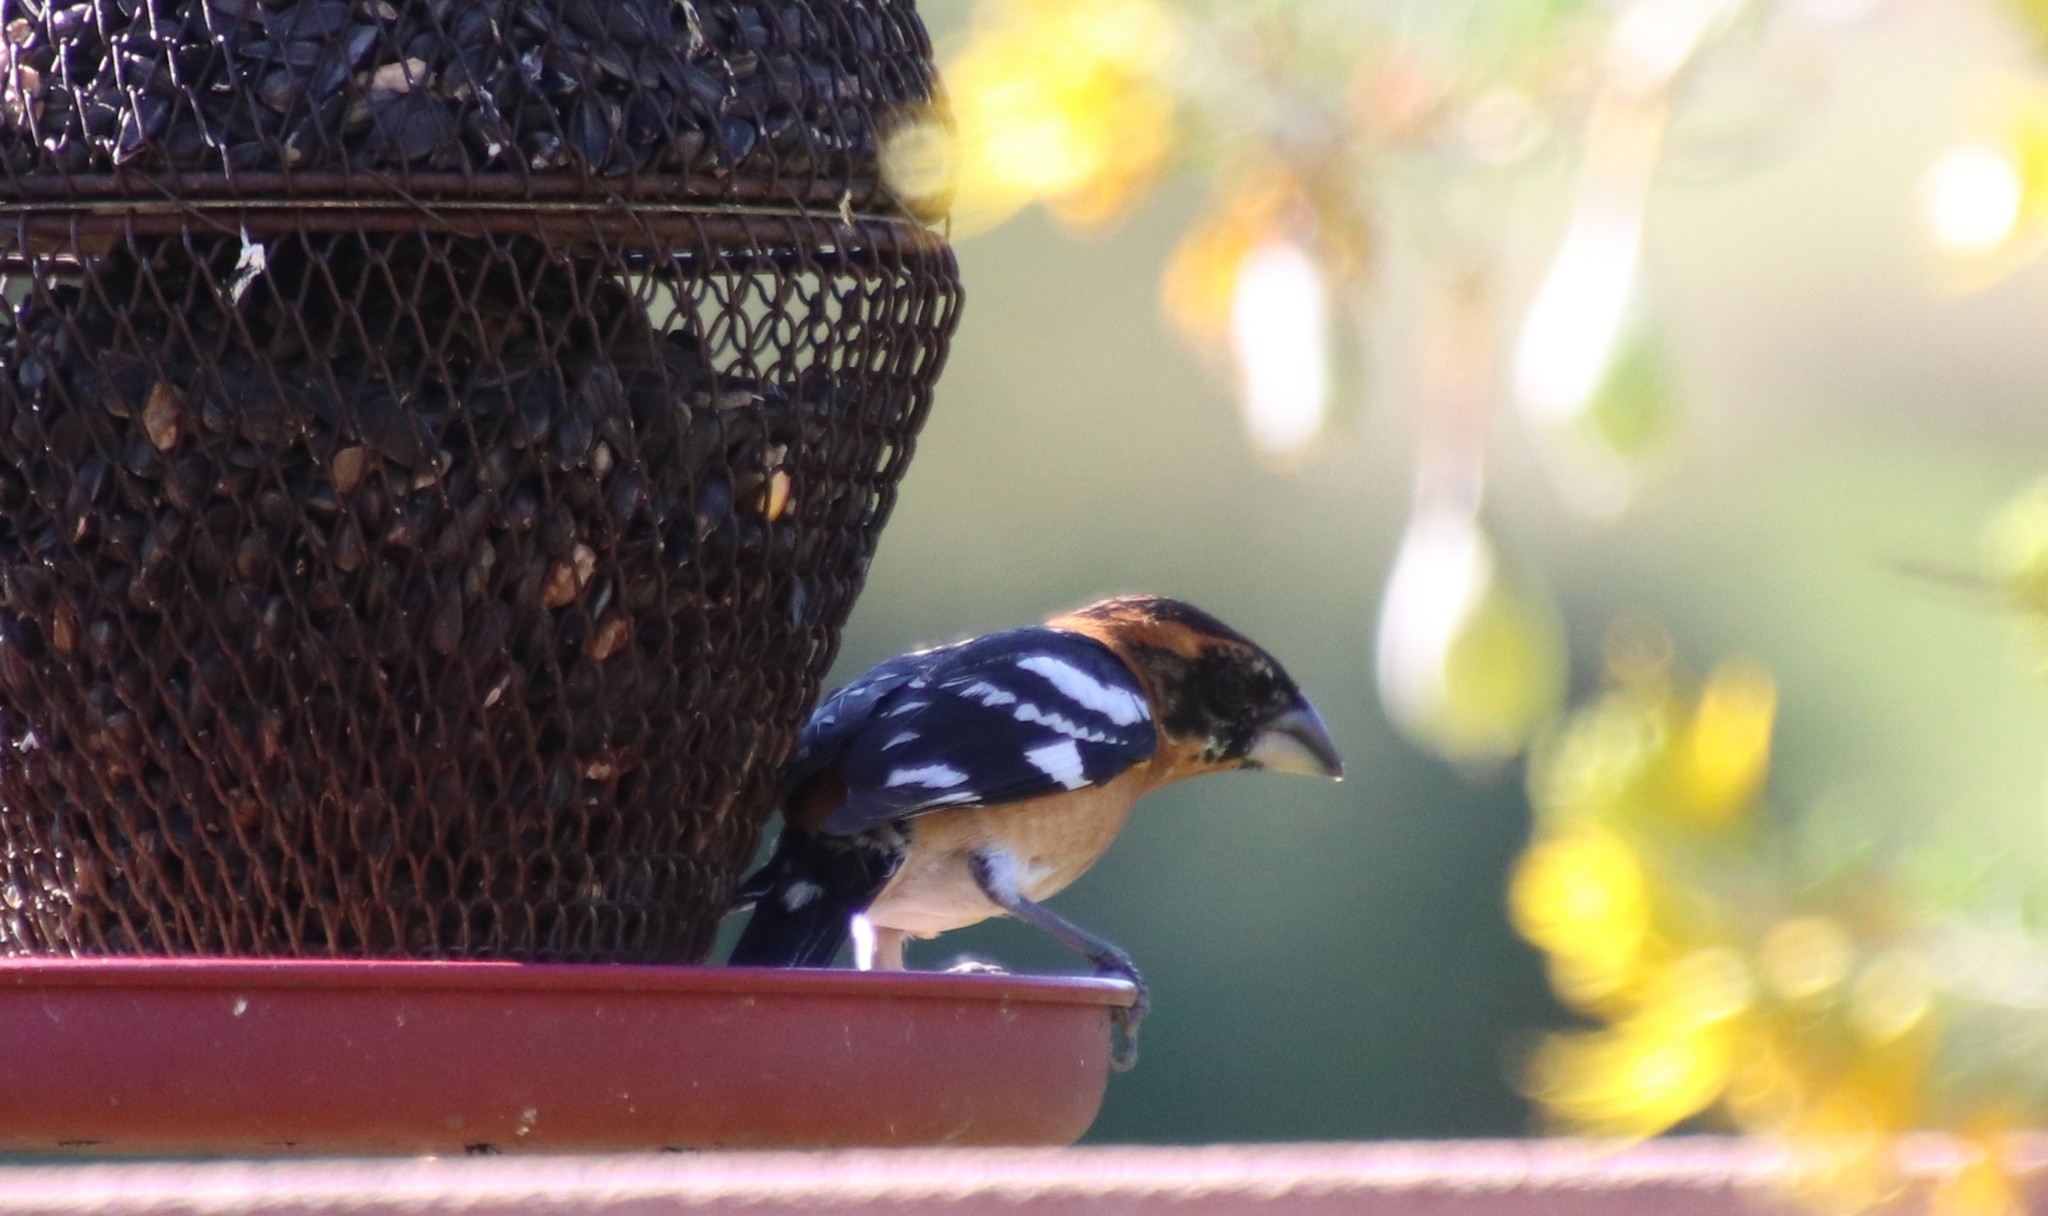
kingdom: Animalia
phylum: Chordata
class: Aves
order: Passeriformes
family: Cardinalidae
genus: Pheucticus
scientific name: Pheucticus melanocephalus
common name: Black-headed grosbeak
